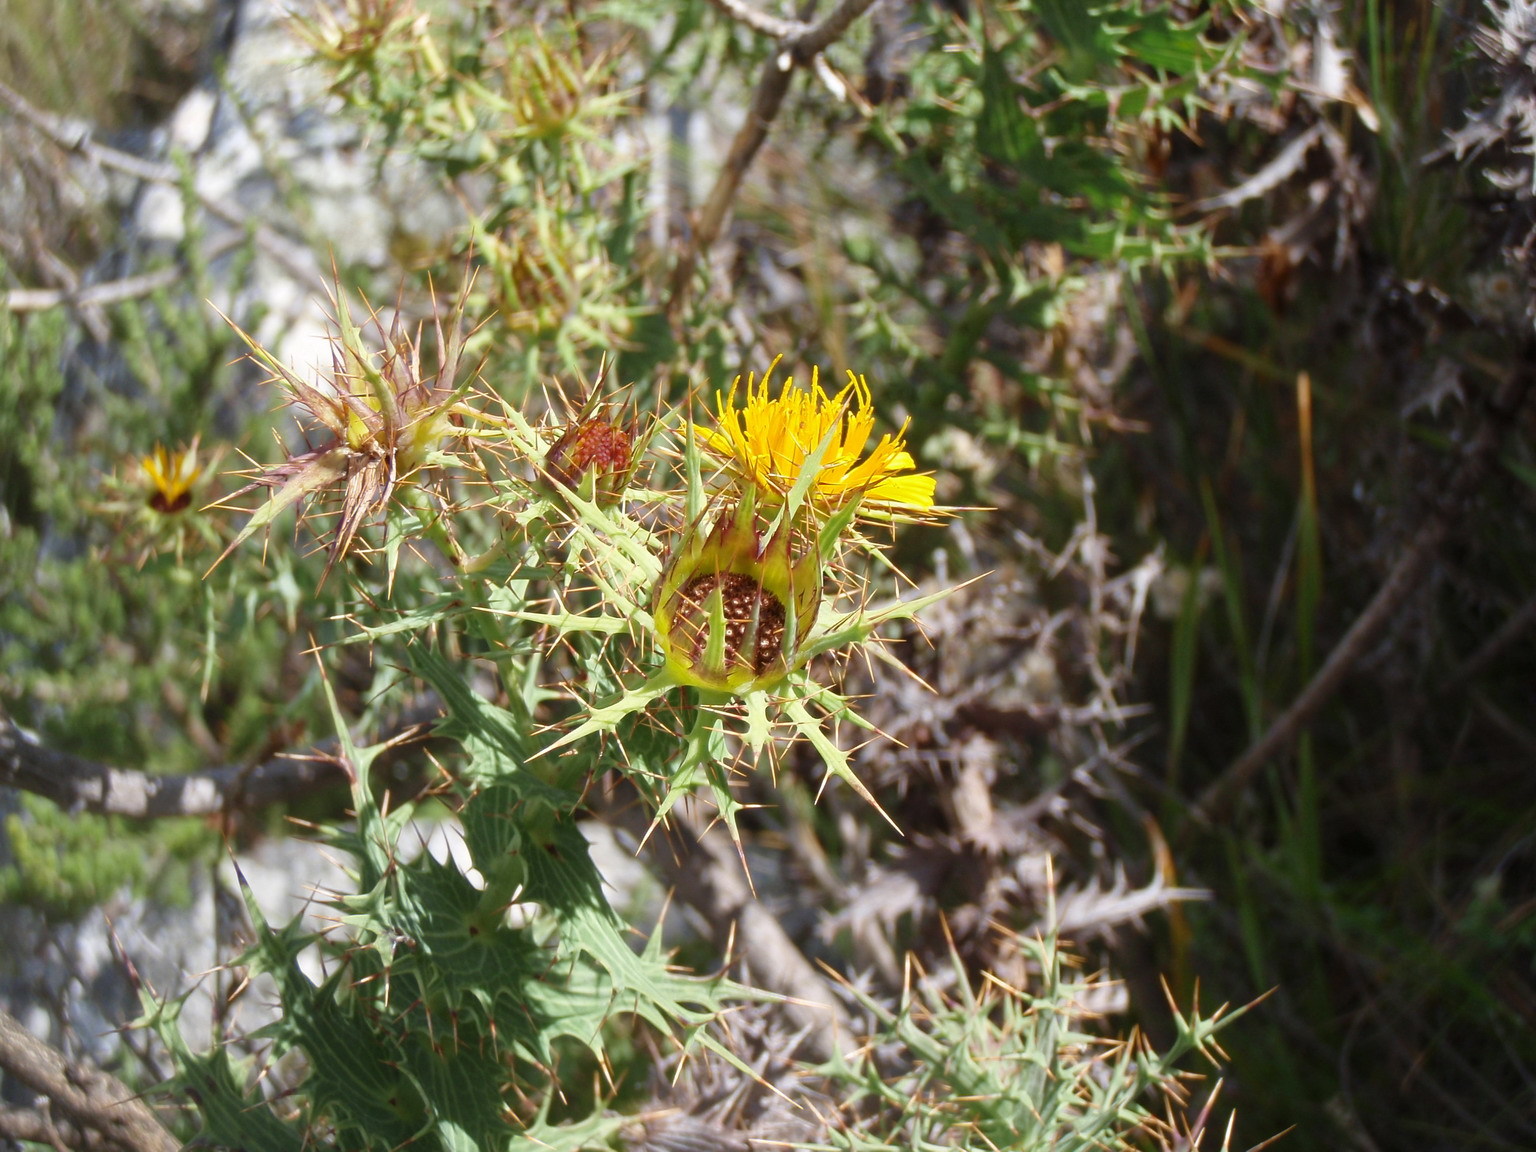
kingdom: Plantae
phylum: Tracheophyta
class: Magnoliopsida
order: Asterales
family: Asteraceae
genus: Berkheya
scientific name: Berkheya cruciata
